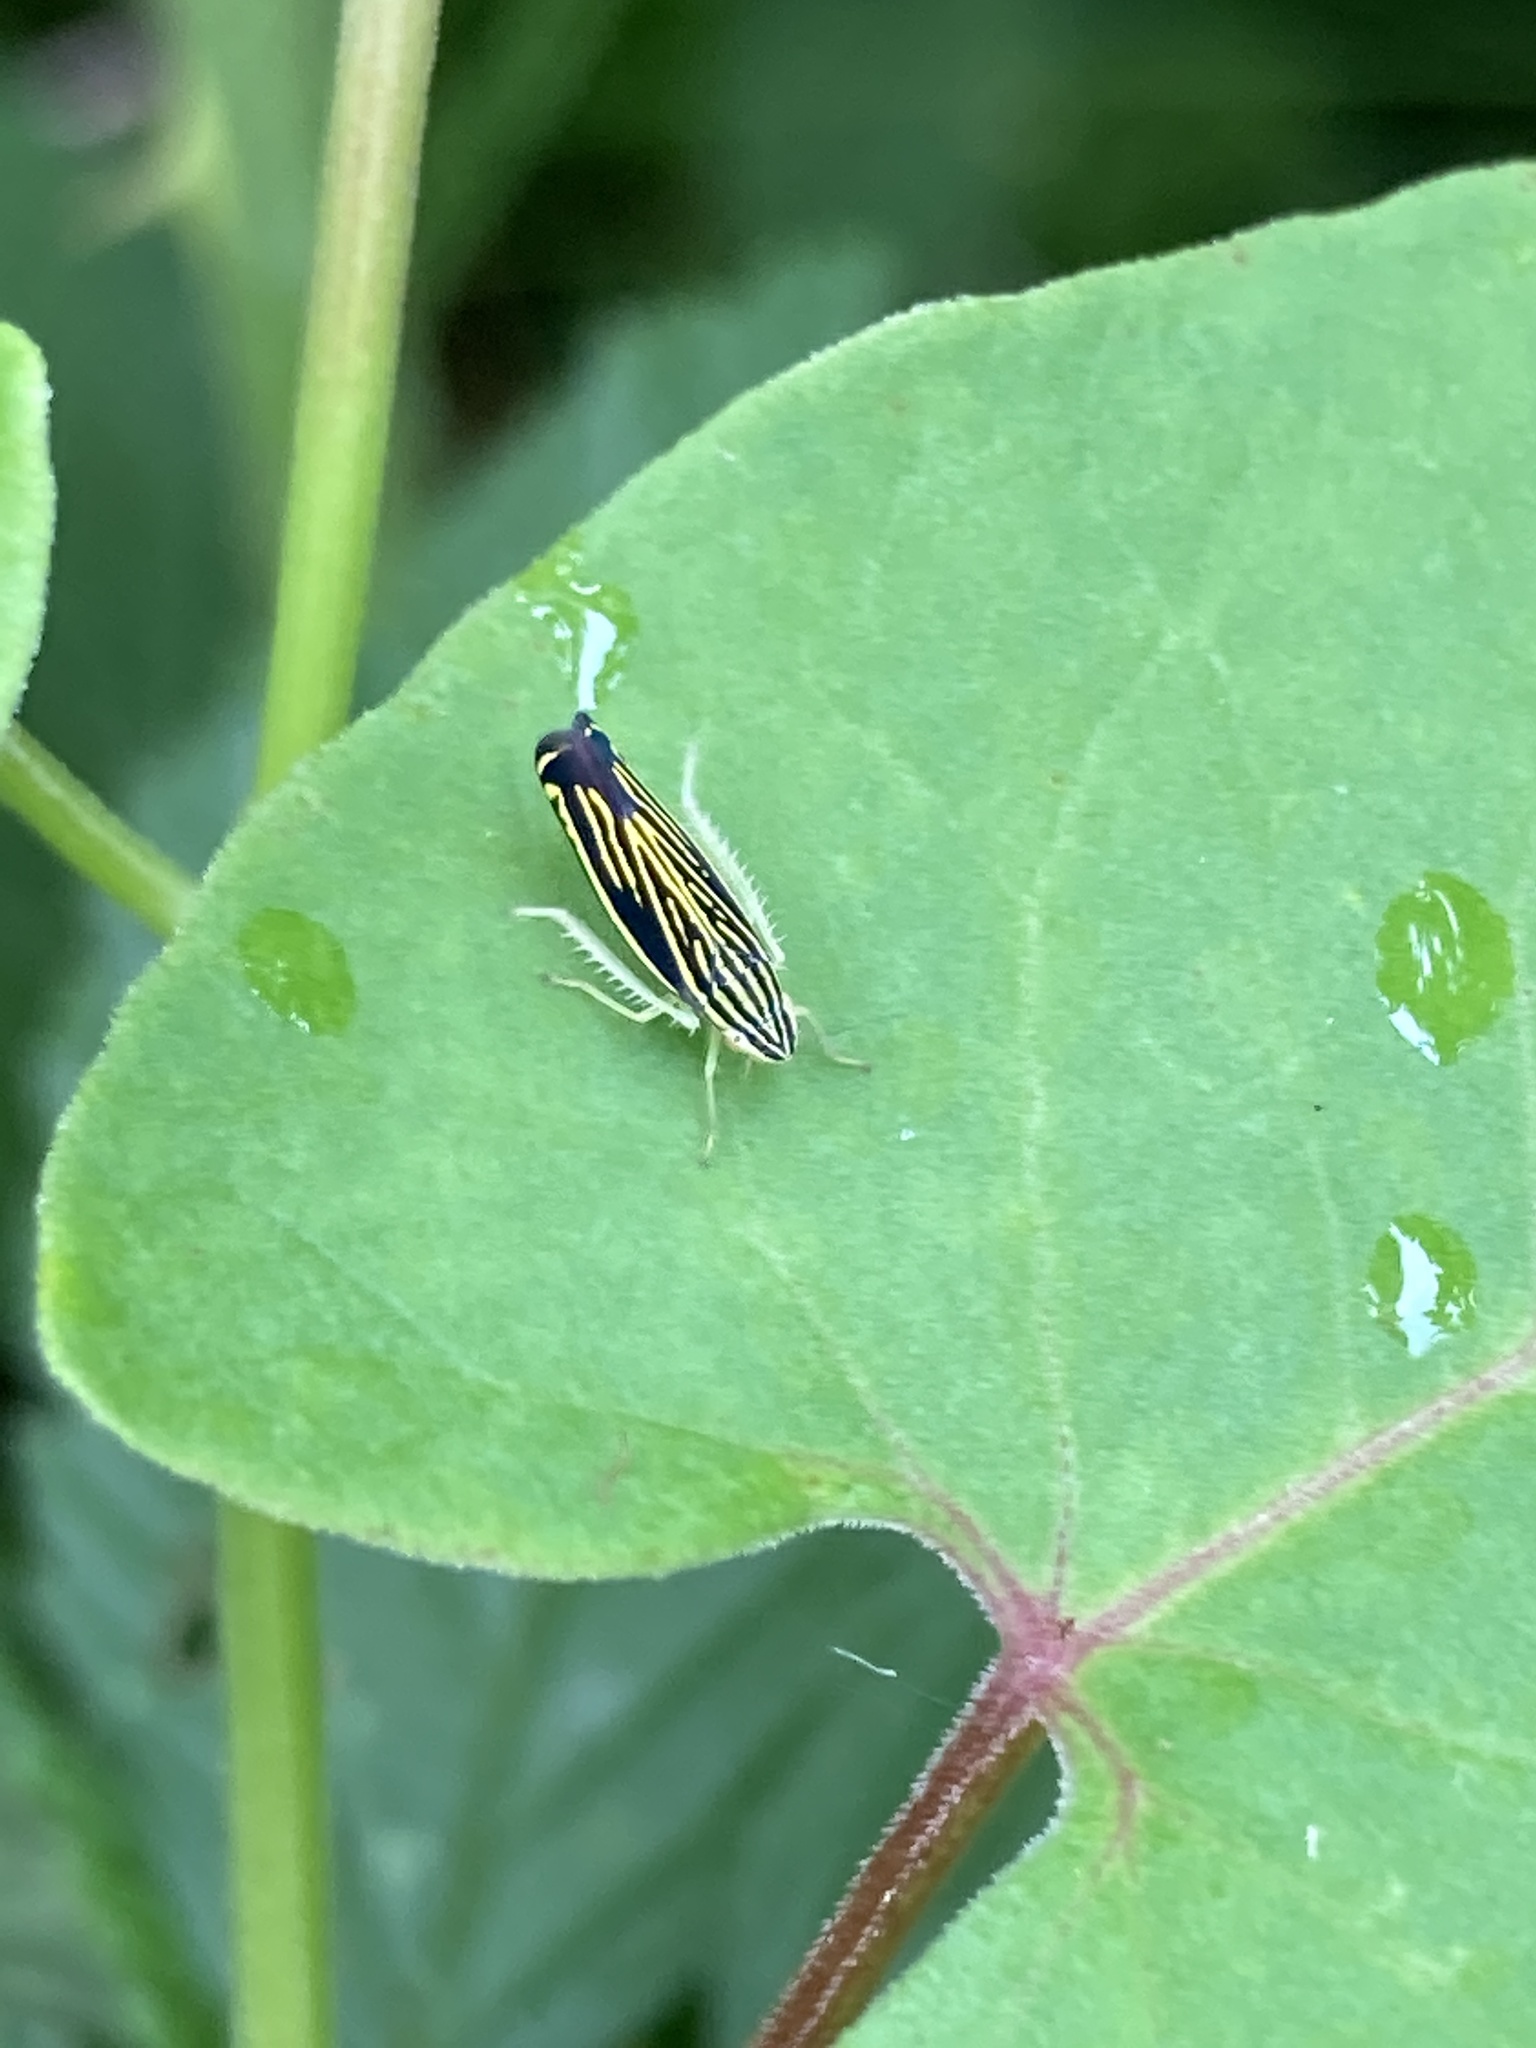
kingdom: Animalia
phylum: Arthropoda
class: Insecta
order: Hemiptera
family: Cicadellidae
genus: Sibovia
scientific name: Sibovia occatoria
